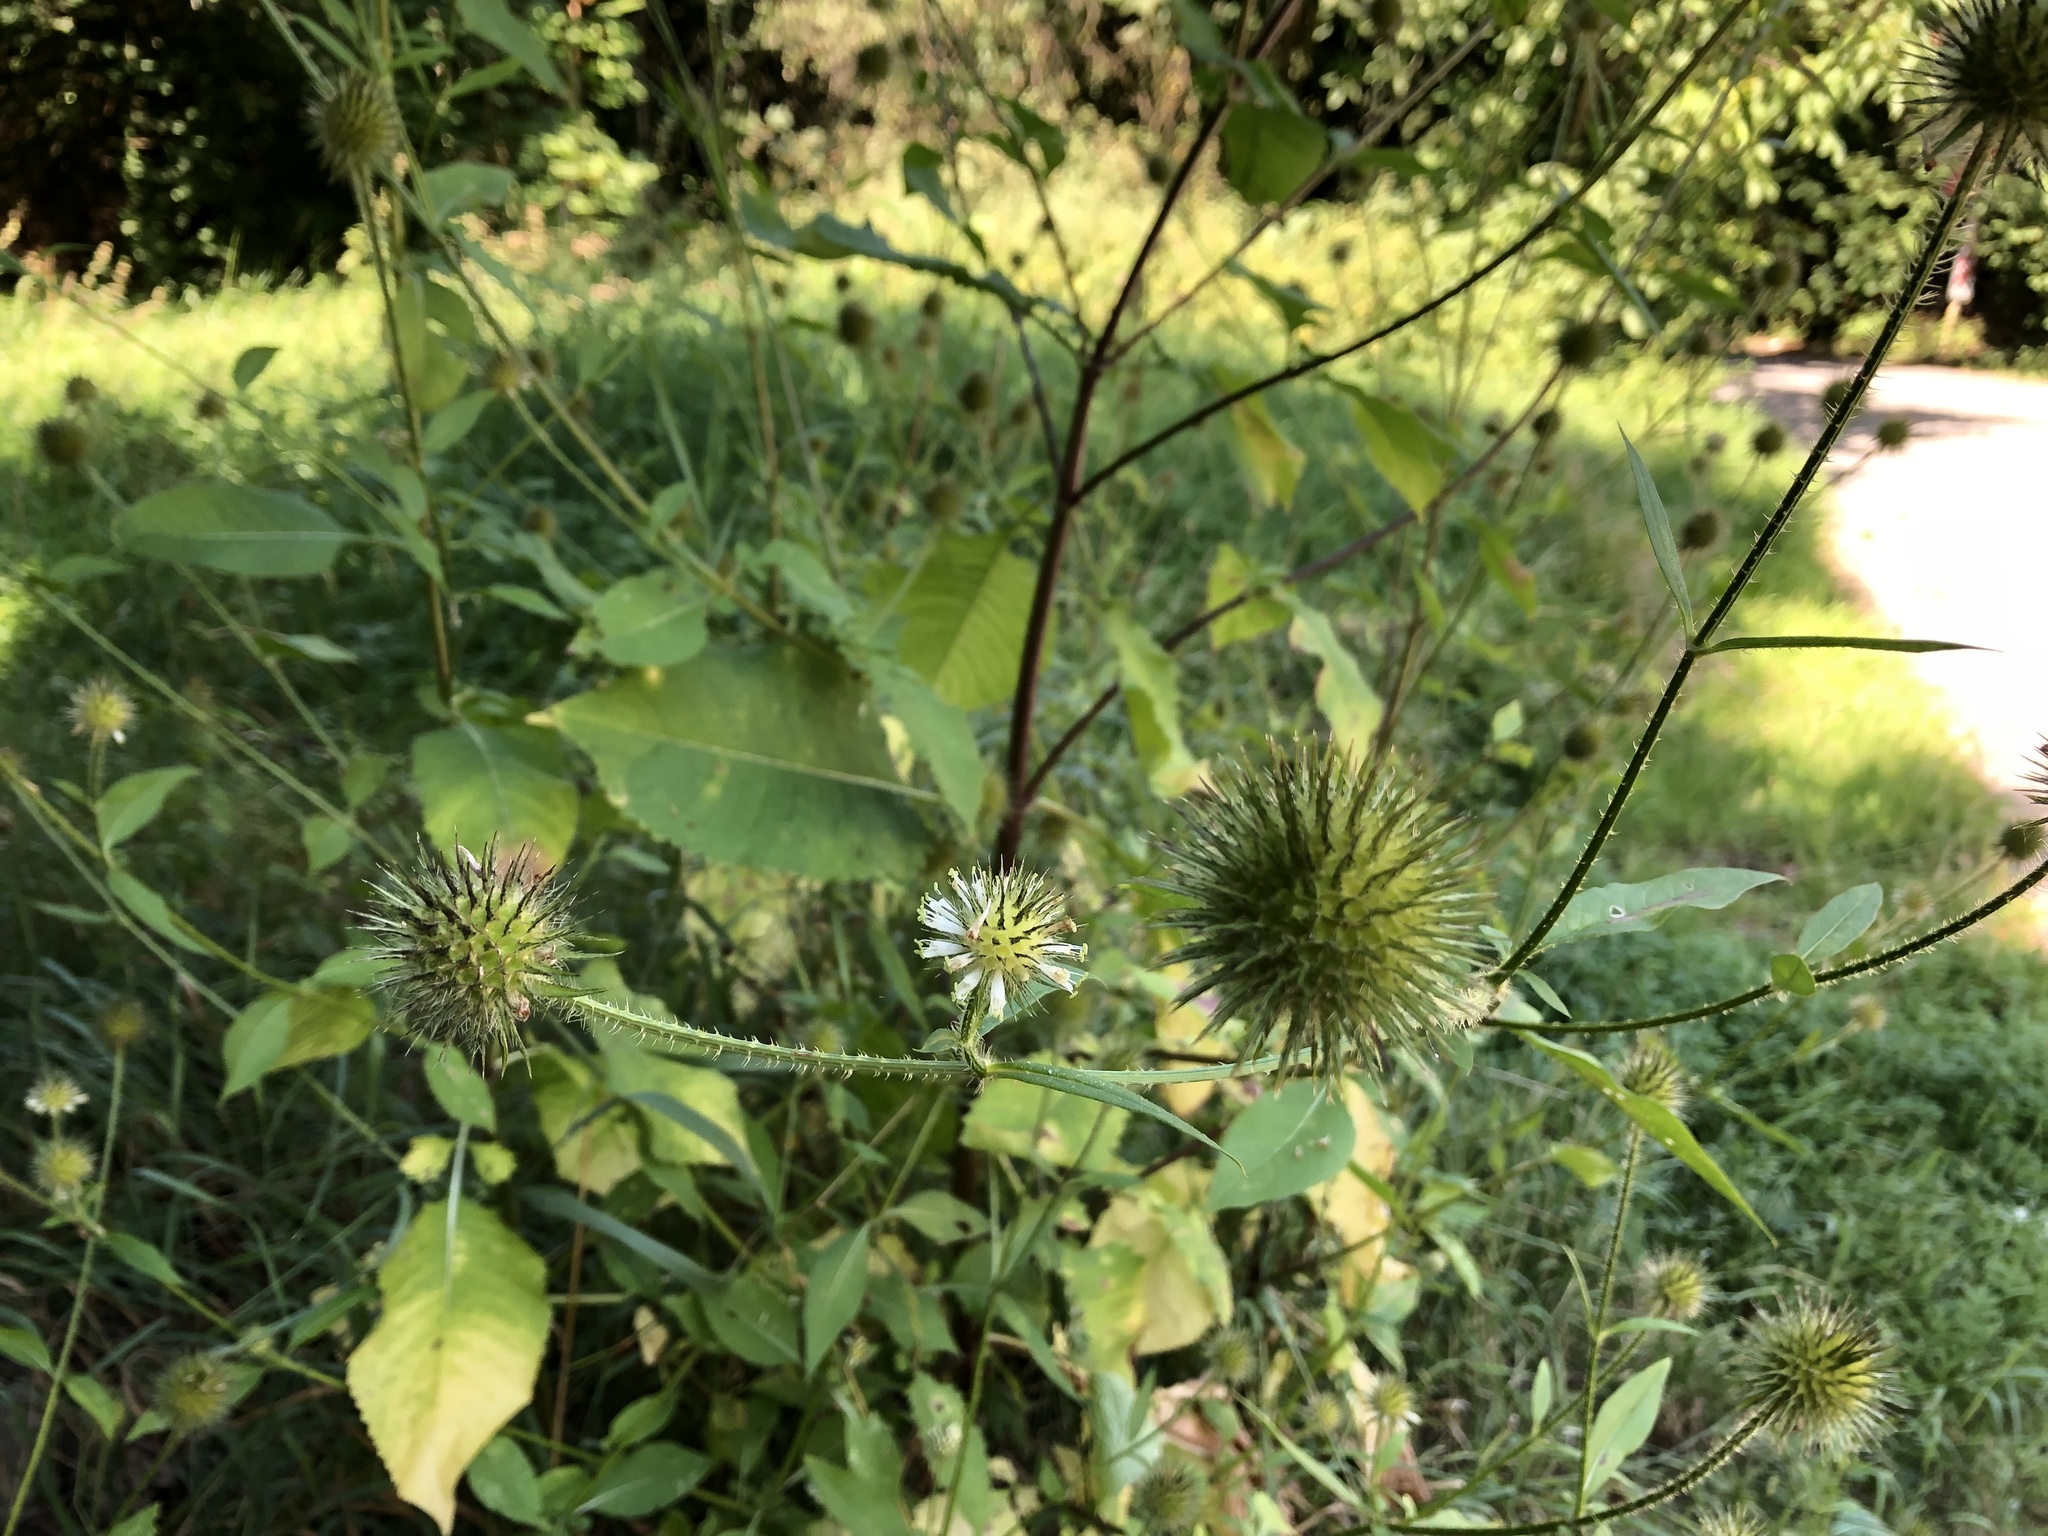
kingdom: Plantae
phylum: Tracheophyta
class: Magnoliopsida
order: Dipsacales
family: Caprifoliaceae
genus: Dipsacus
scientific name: Dipsacus strigosus
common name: Yellow-flowered teasel
